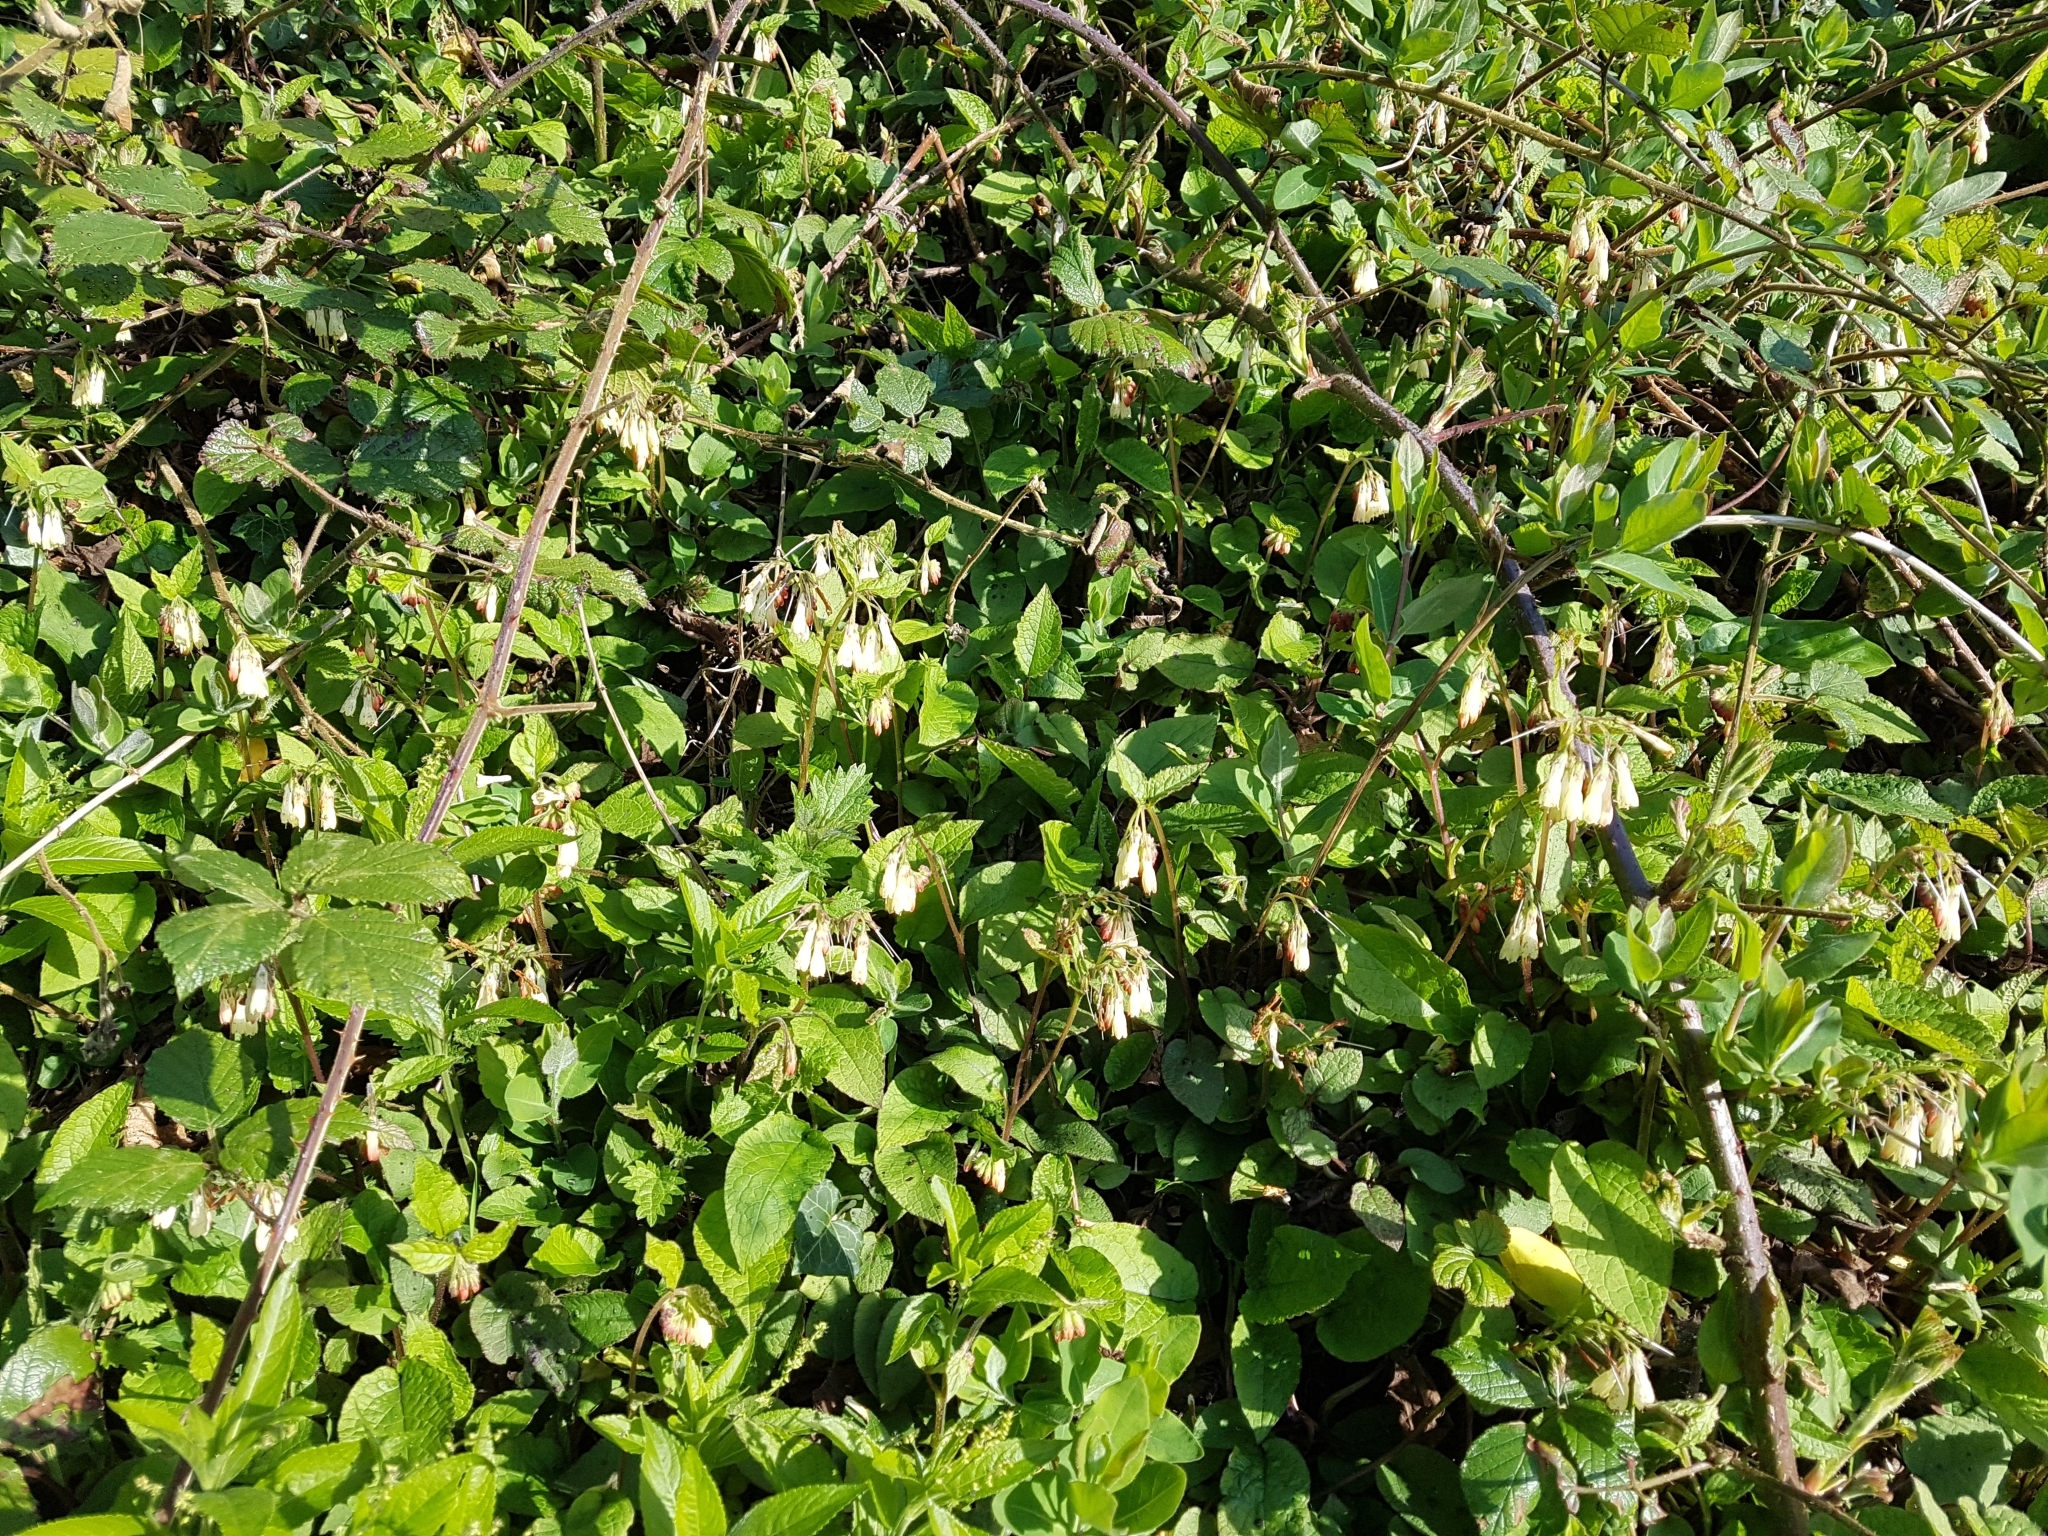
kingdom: Plantae
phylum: Tracheophyta
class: Magnoliopsida
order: Boraginales
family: Boraginaceae
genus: Symphytum
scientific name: Symphytum grandiflorum
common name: Creeping comfrey
